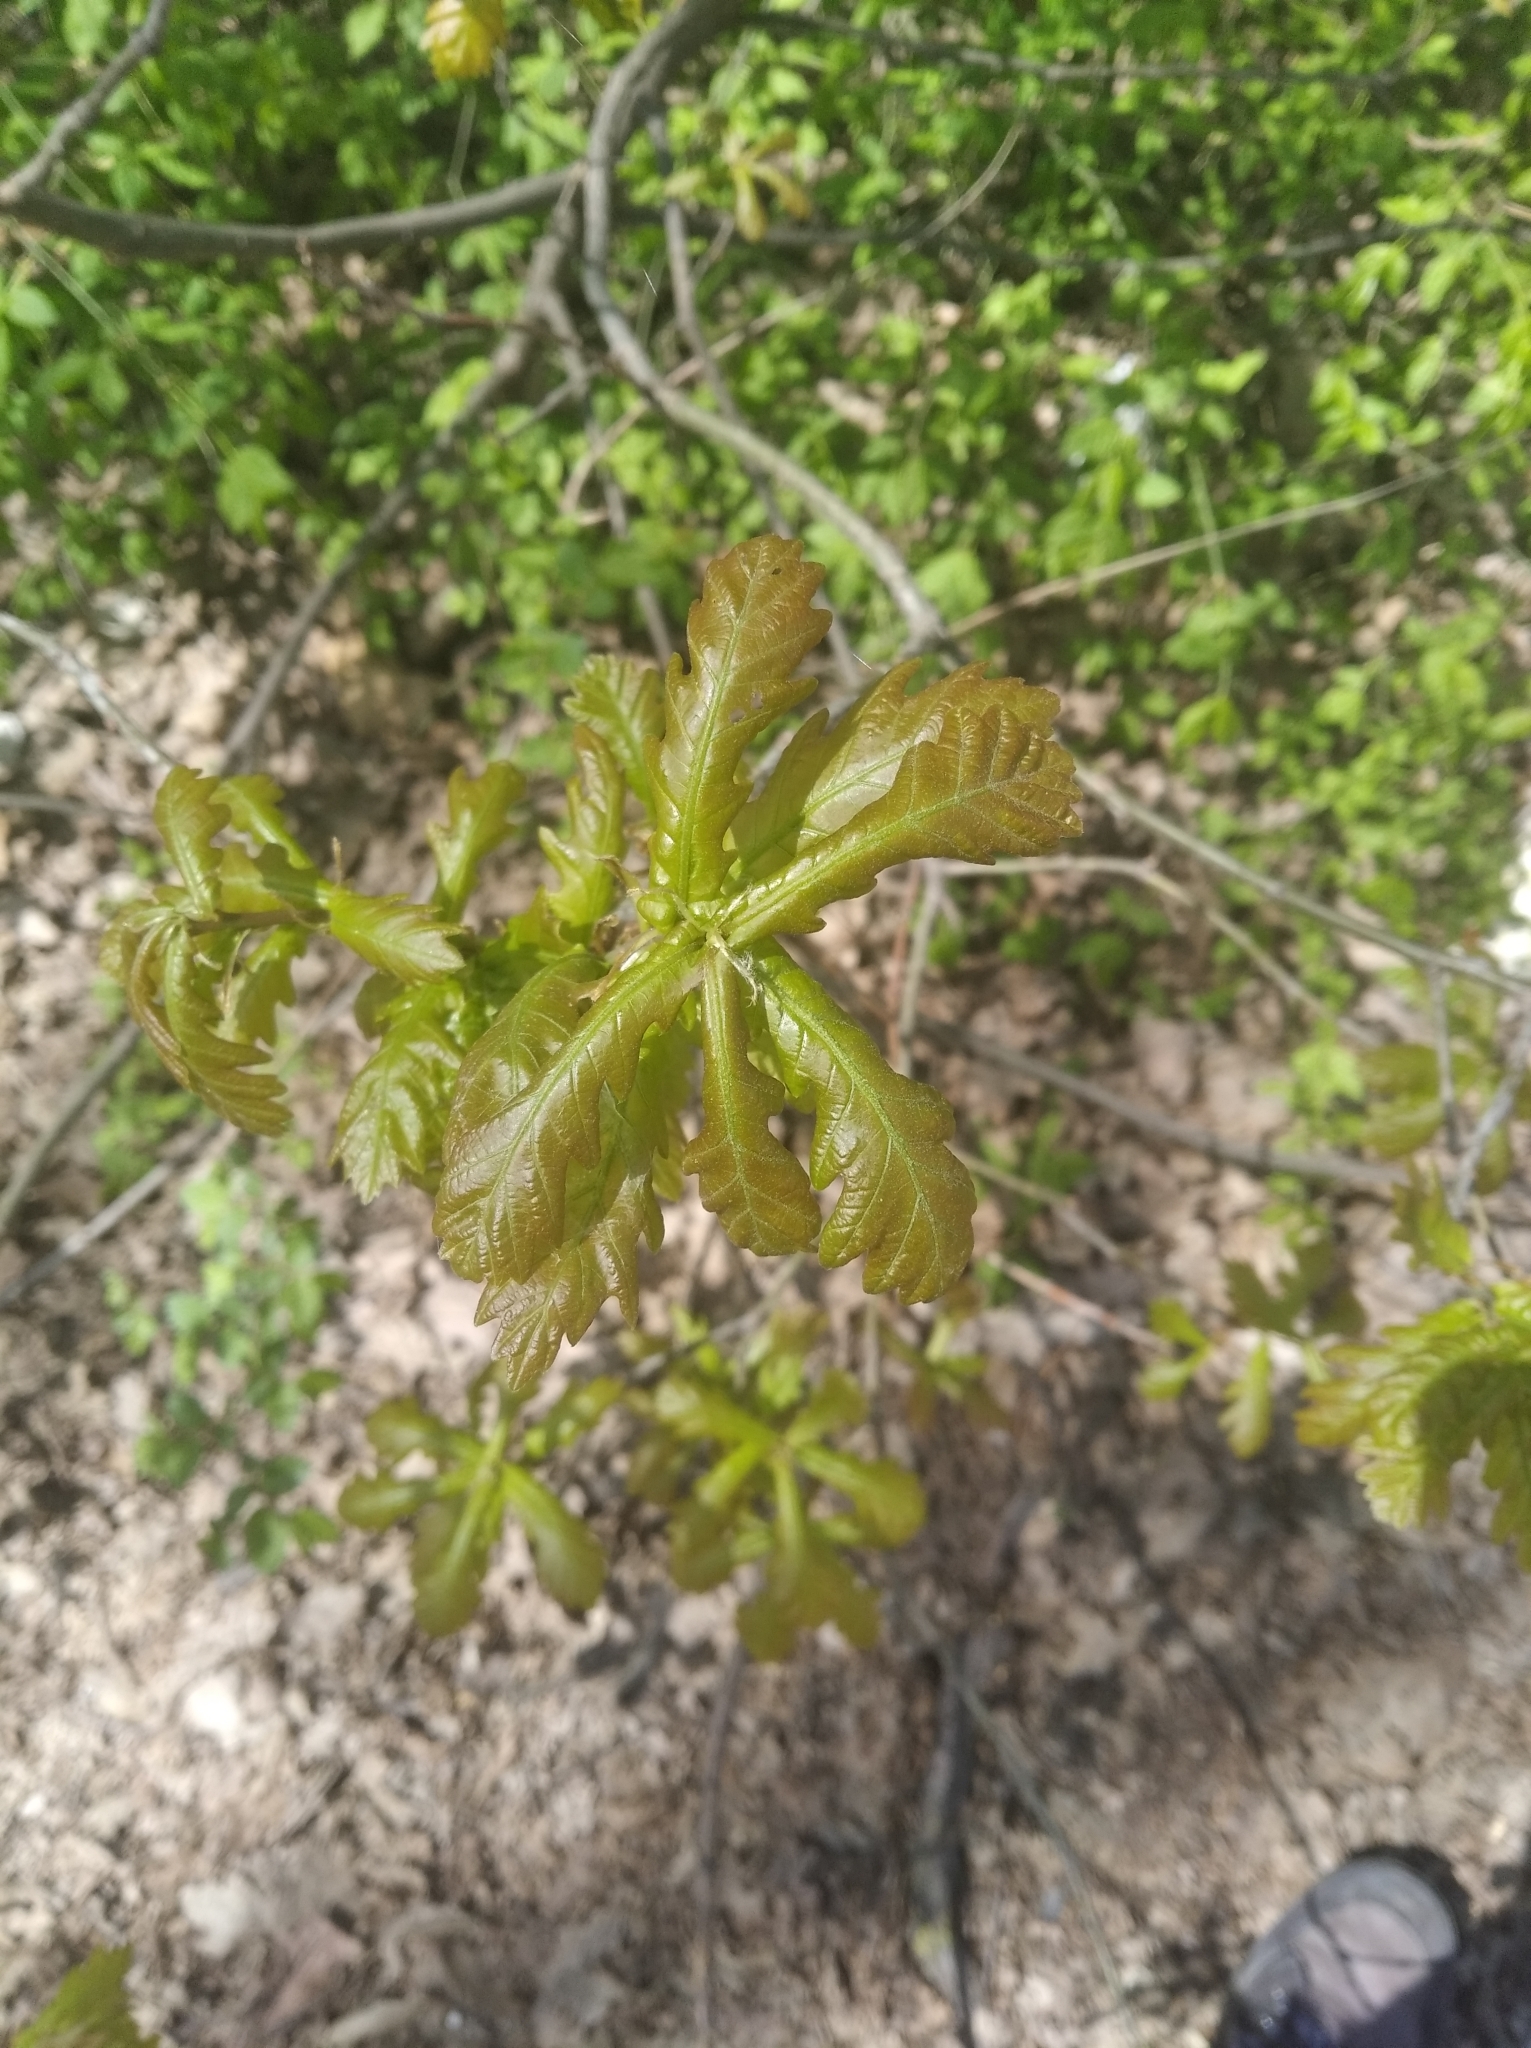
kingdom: Plantae
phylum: Tracheophyta
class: Magnoliopsida
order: Fagales
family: Fagaceae
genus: Quercus
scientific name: Quercus robur
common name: Pedunculate oak
